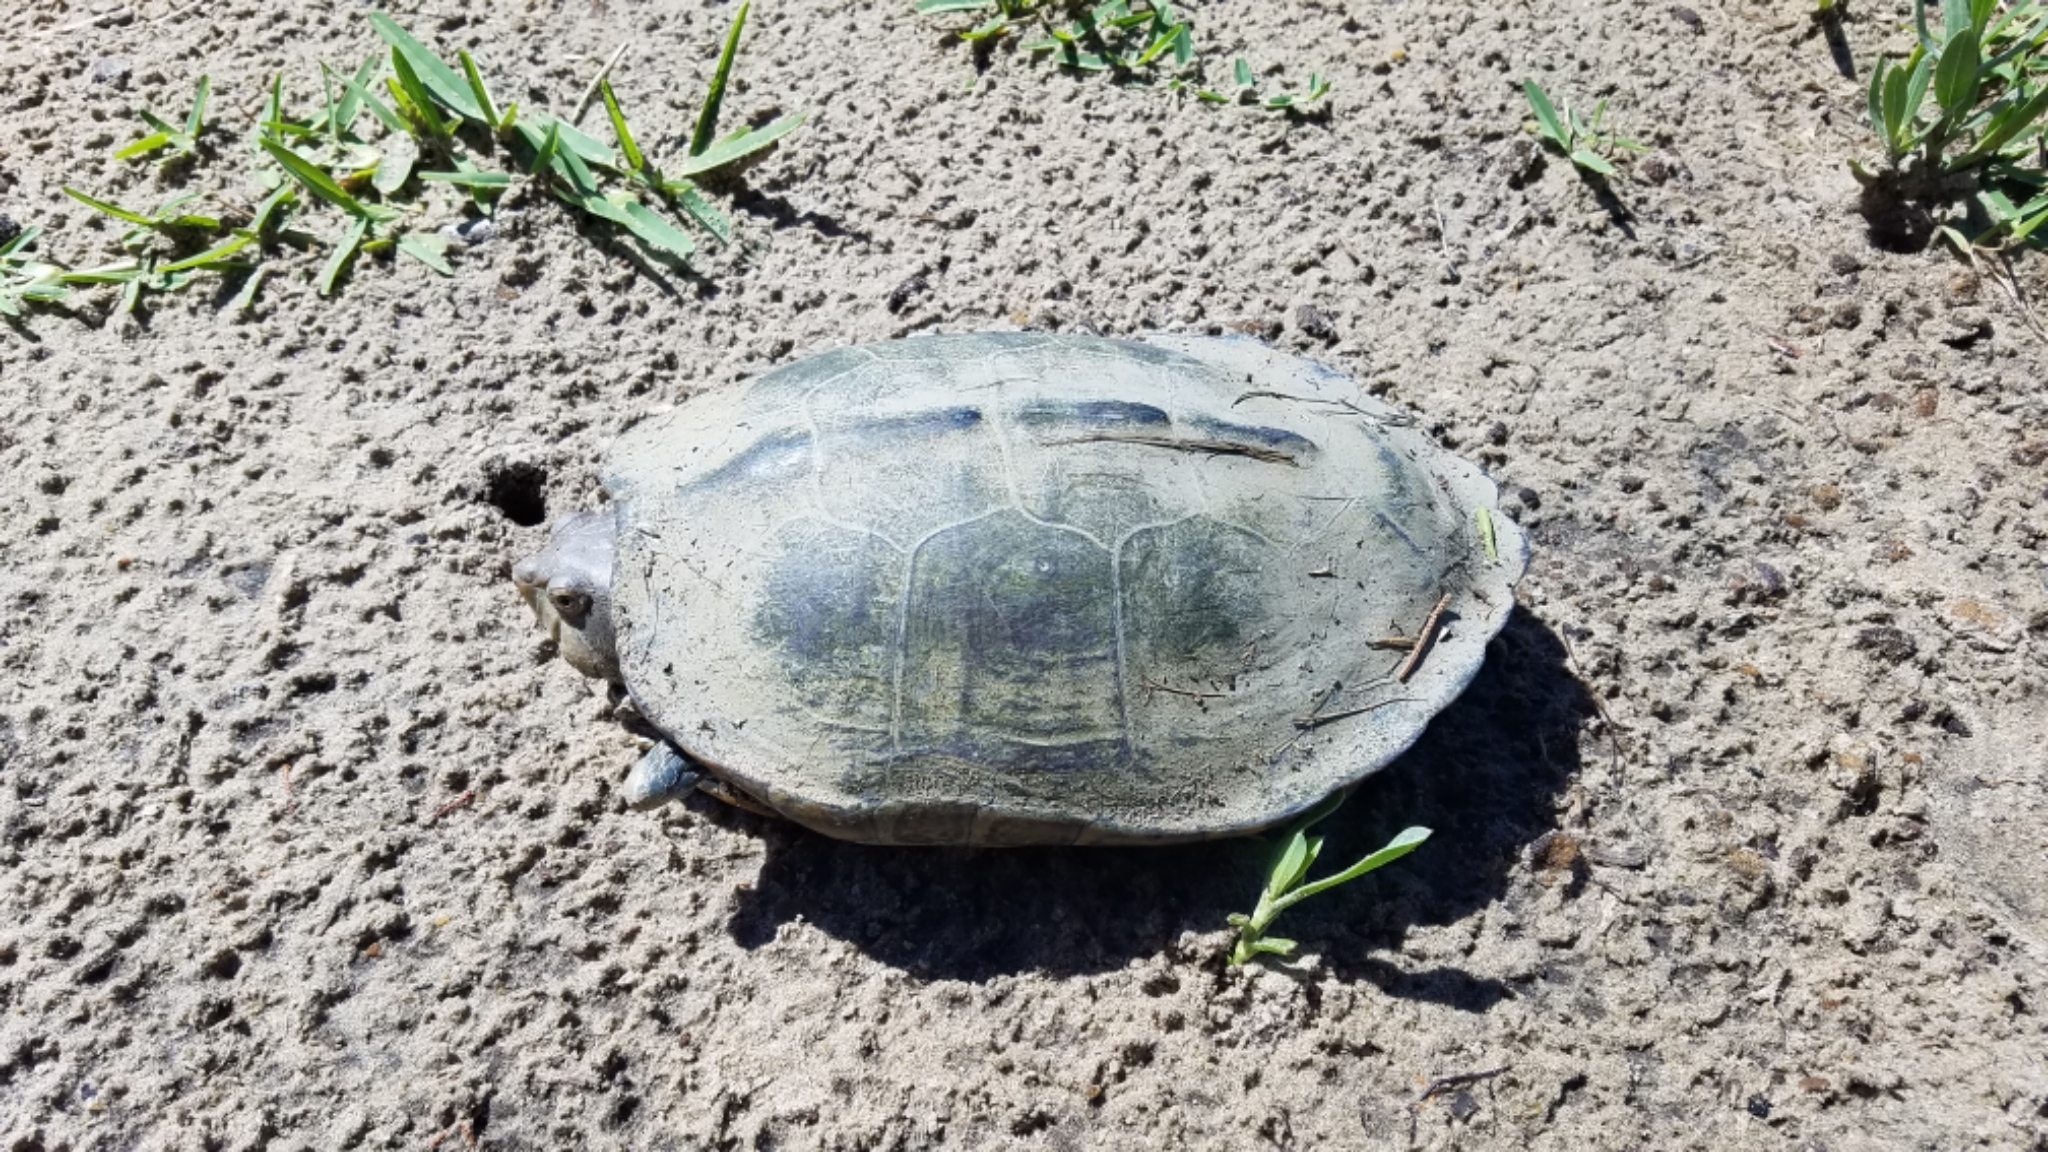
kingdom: Animalia
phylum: Chordata
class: Testudines
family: Emydidae
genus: Malaclemys
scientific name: Malaclemys terrapin
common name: Diamondback terrapin
